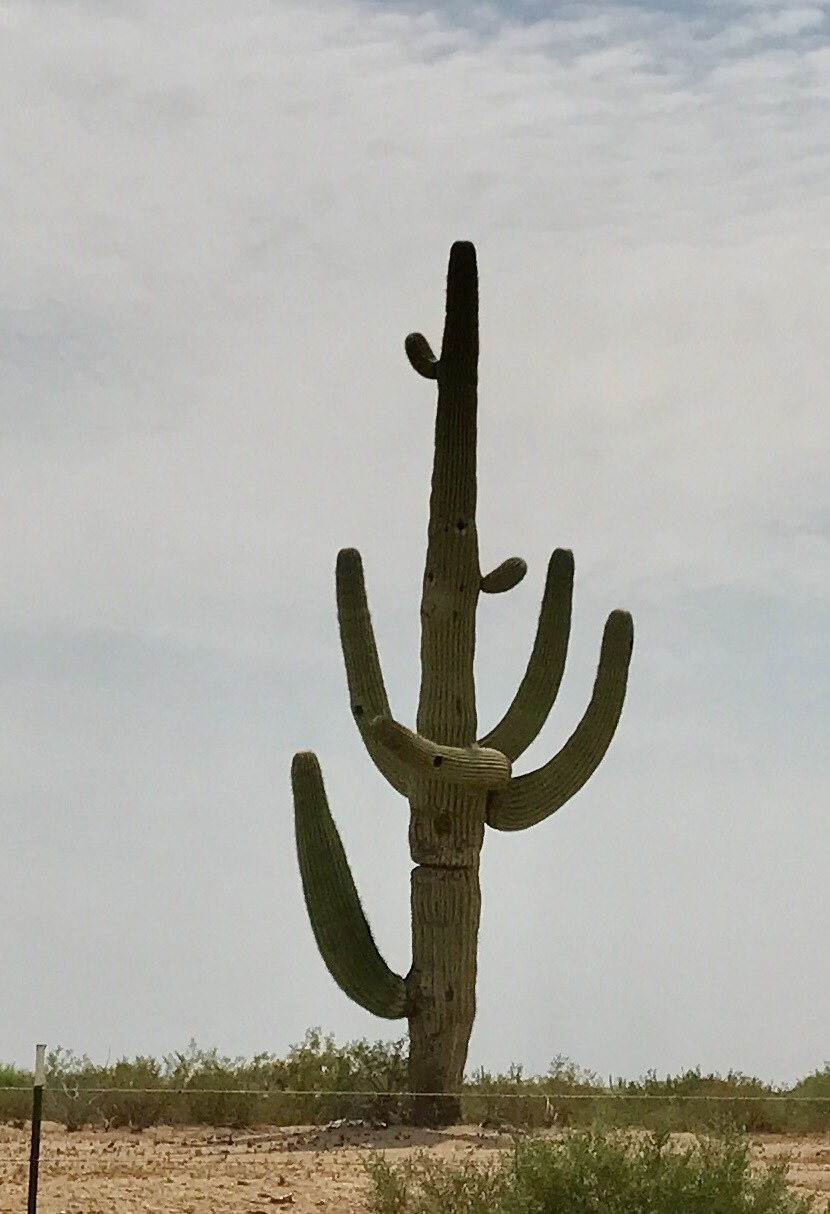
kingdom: Plantae
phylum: Tracheophyta
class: Magnoliopsida
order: Caryophyllales
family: Cactaceae
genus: Carnegiea
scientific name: Carnegiea gigantea
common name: Saguaro
